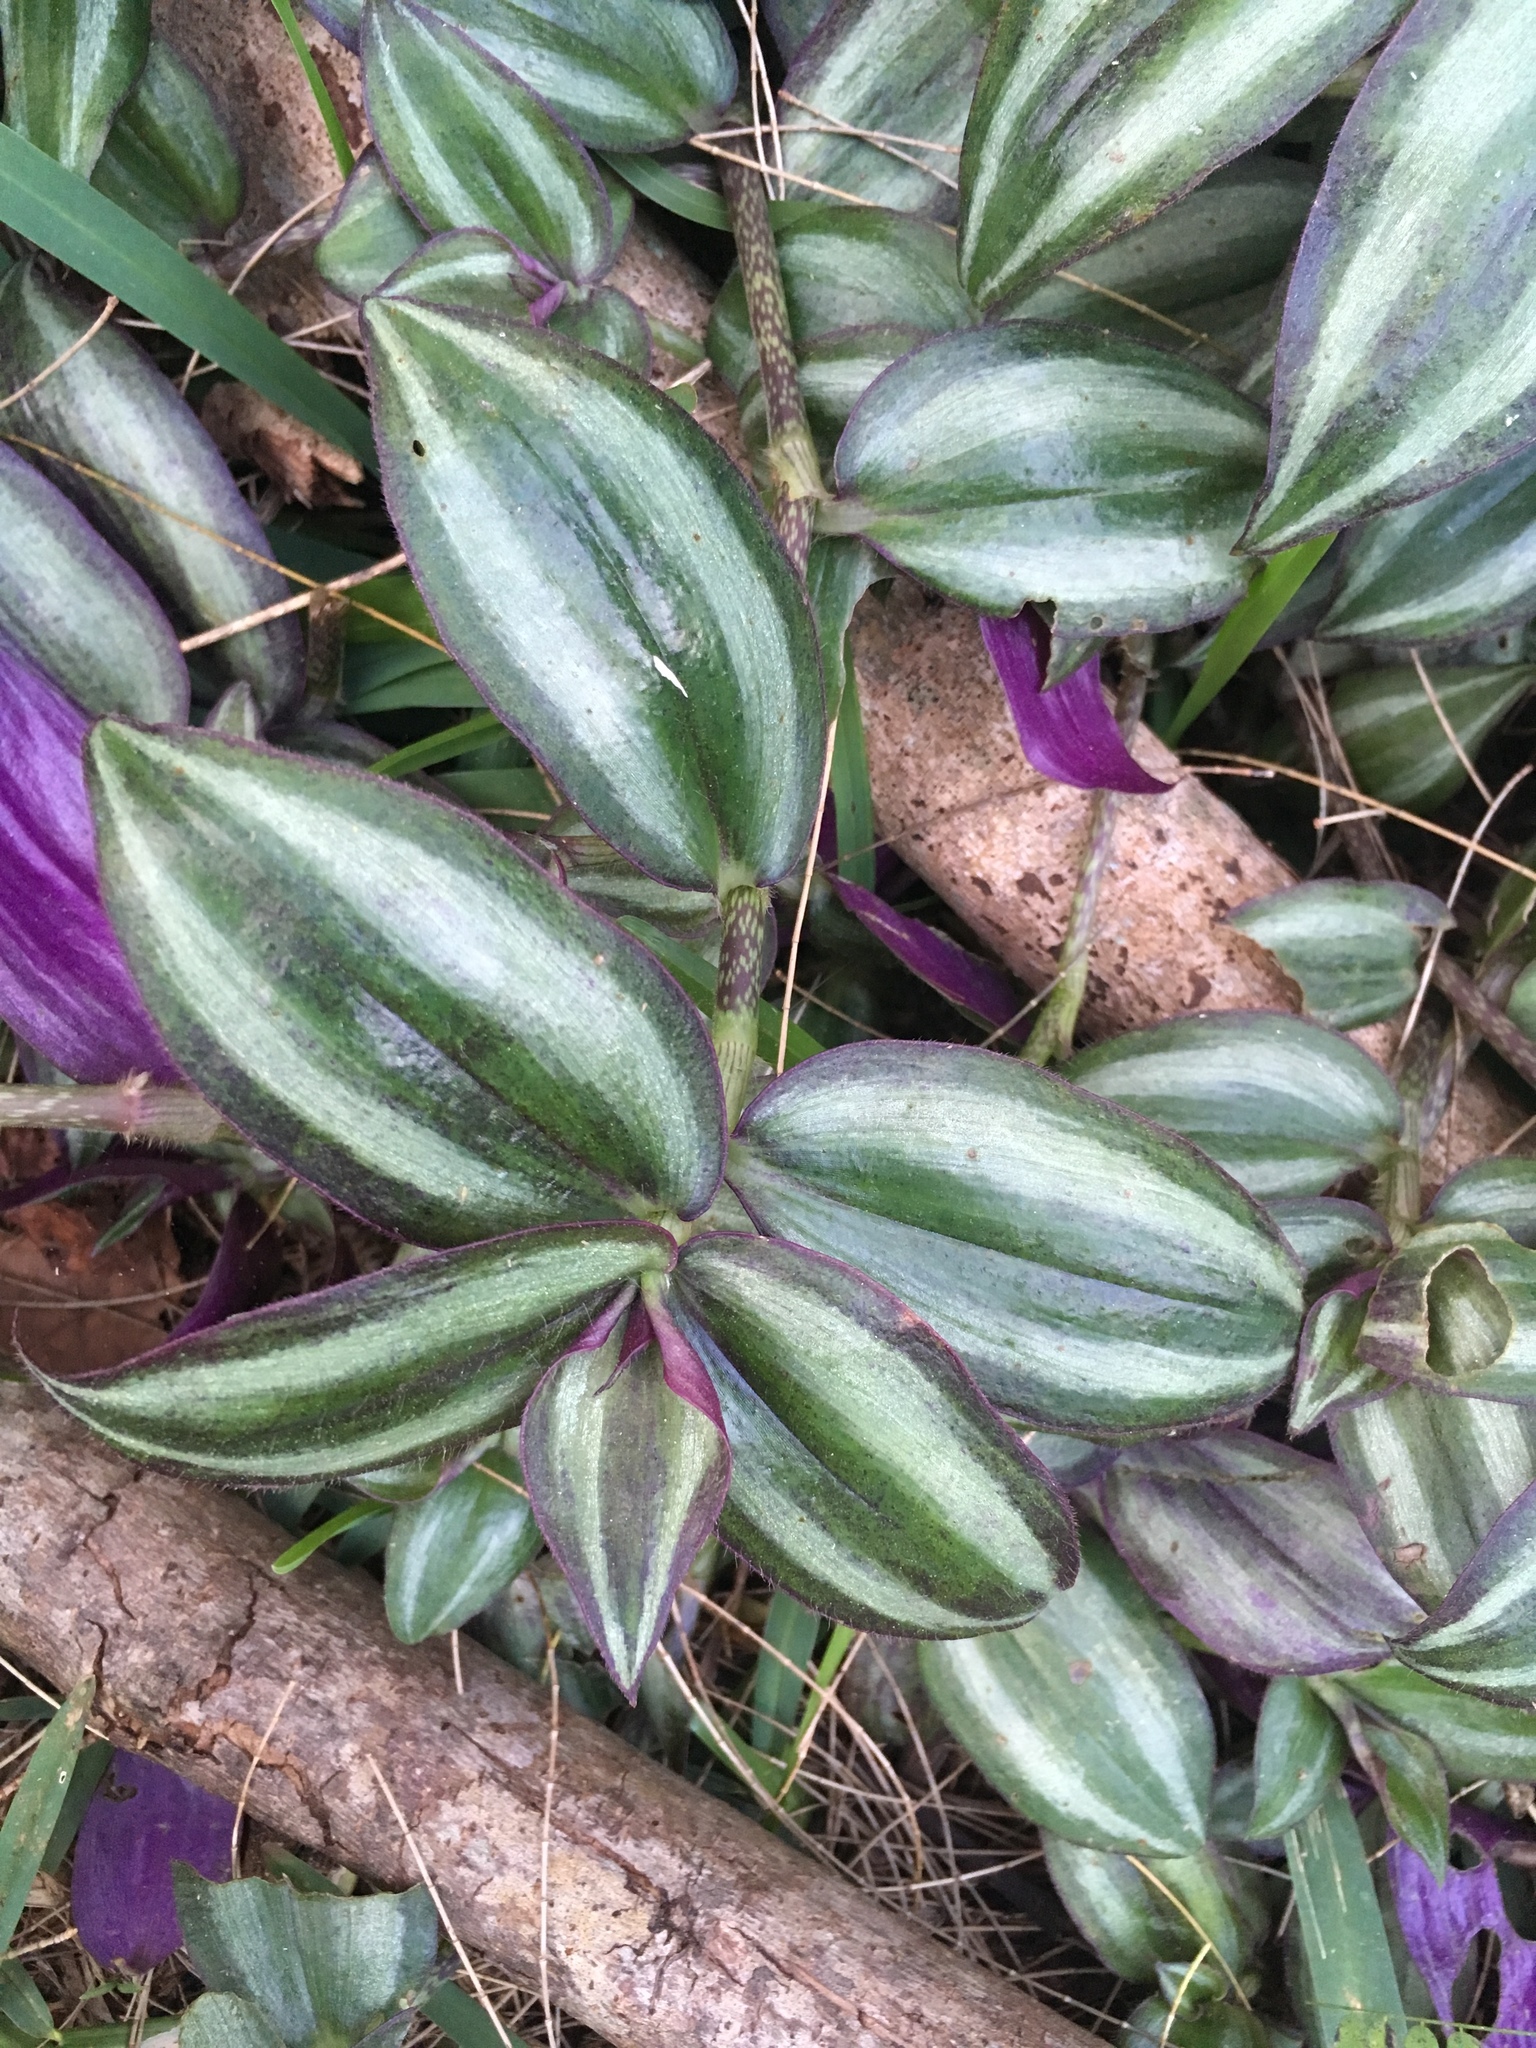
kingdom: Plantae
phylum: Tracheophyta
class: Liliopsida
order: Commelinales
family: Commelinaceae
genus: Tradescantia
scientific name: Tradescantia zebrina
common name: Inchplant
